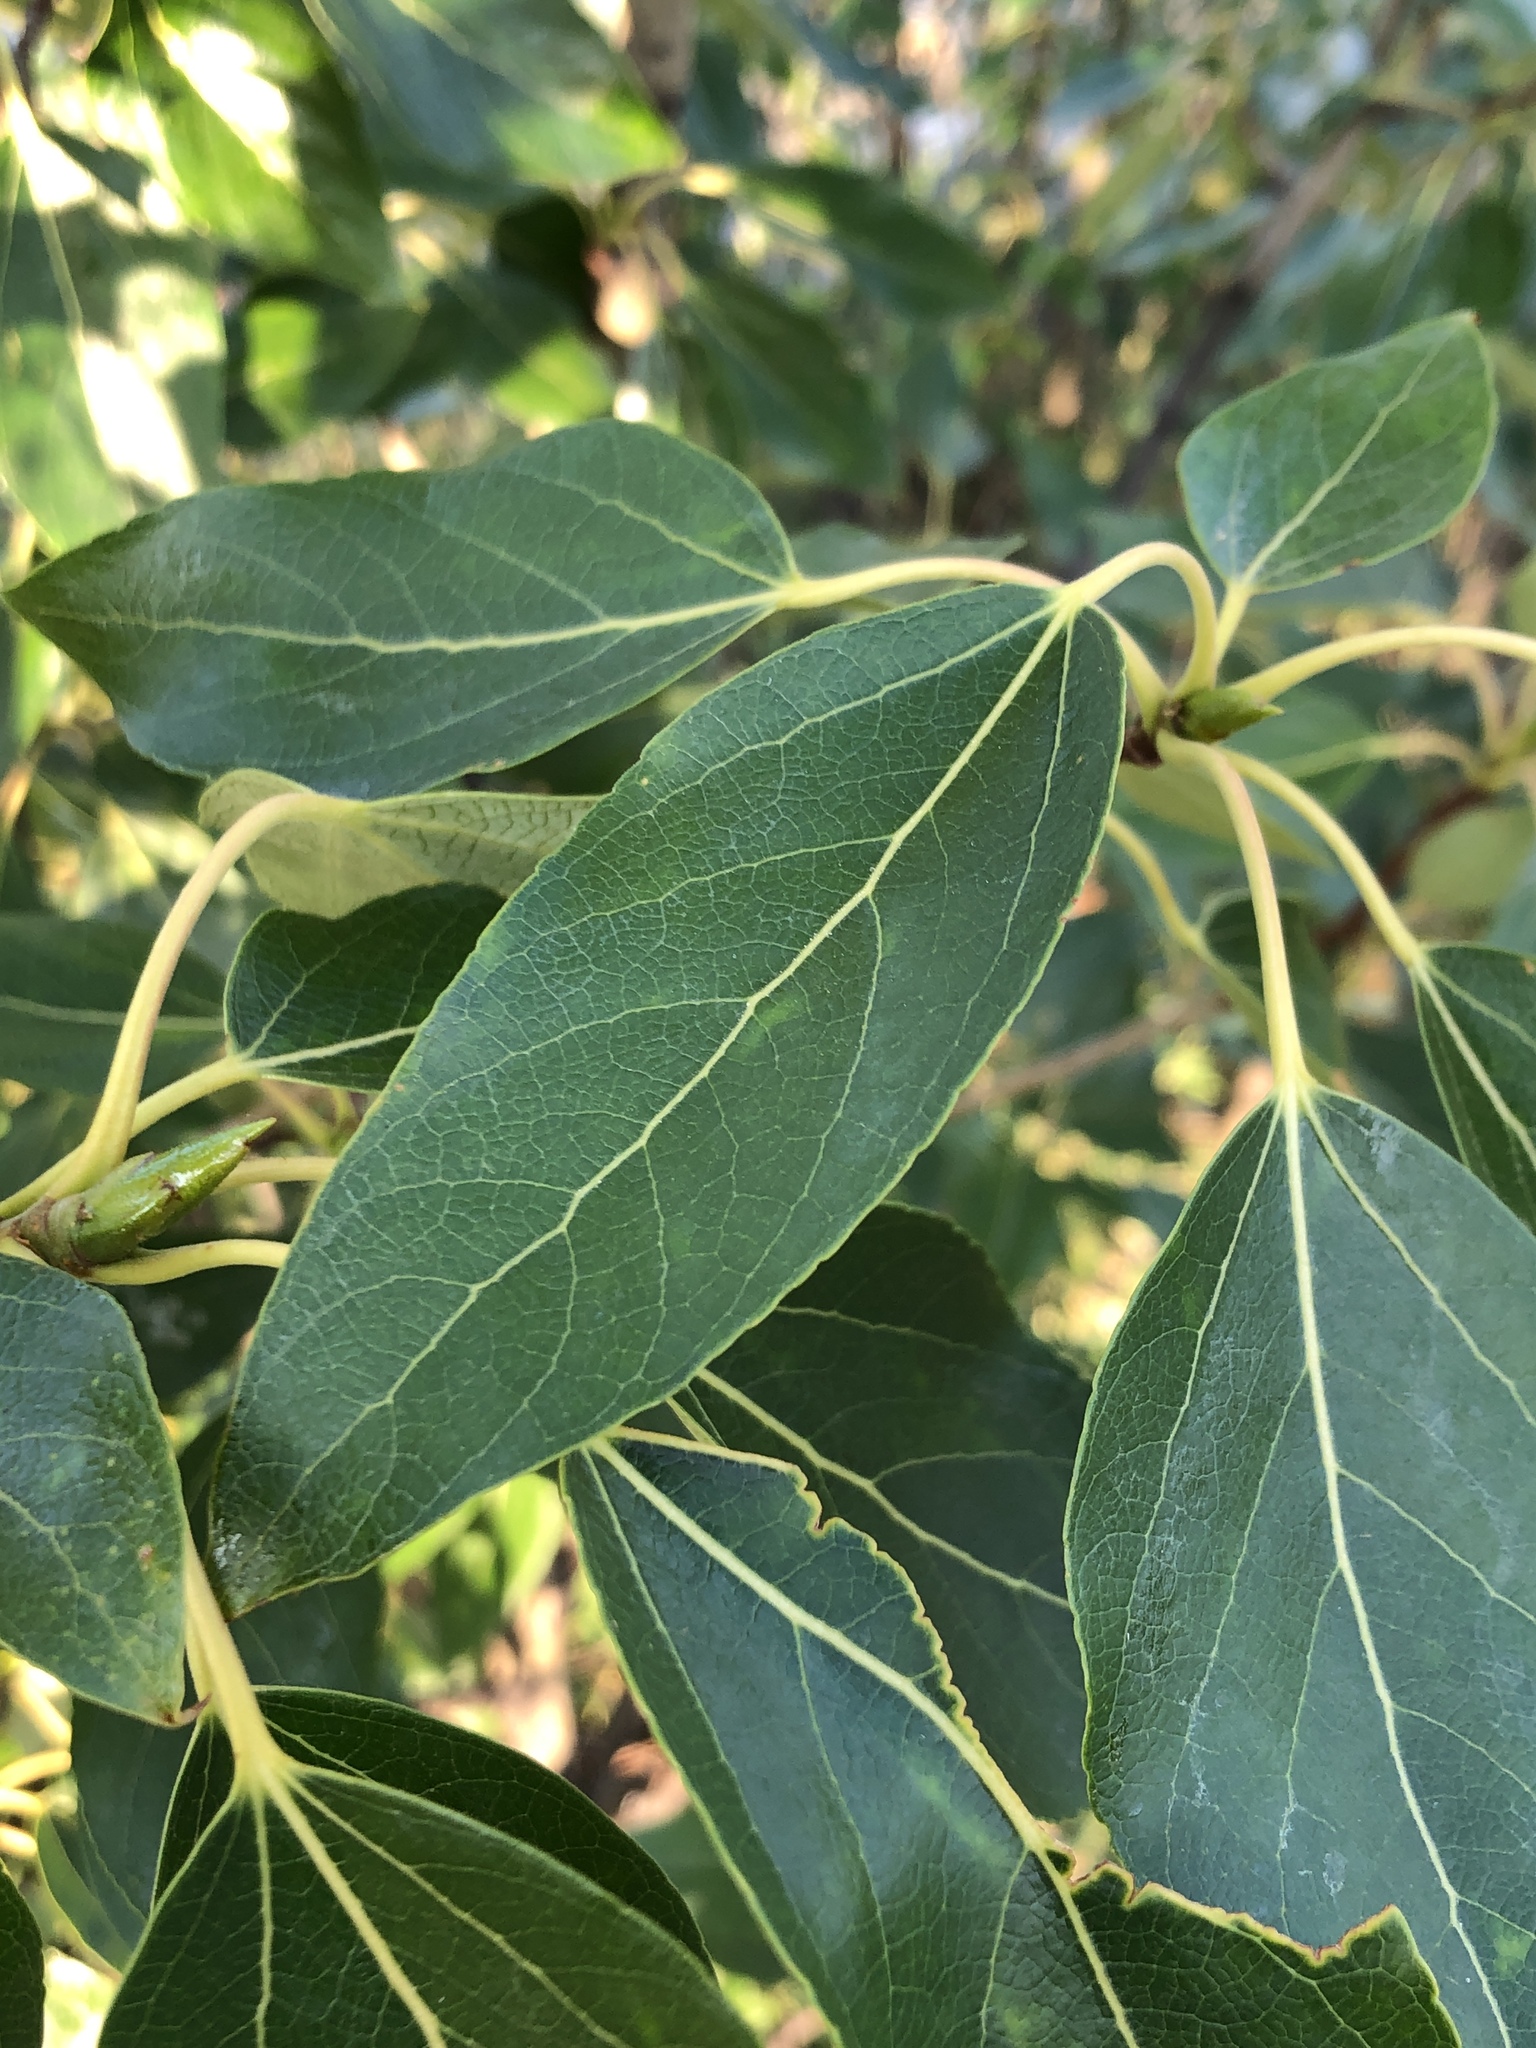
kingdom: Plantae
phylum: Tracheophyta
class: Magnoliopsida
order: Malpighiales
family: Salicaceae
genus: Populus
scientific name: Populus balsamifera
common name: Balsam poplar
